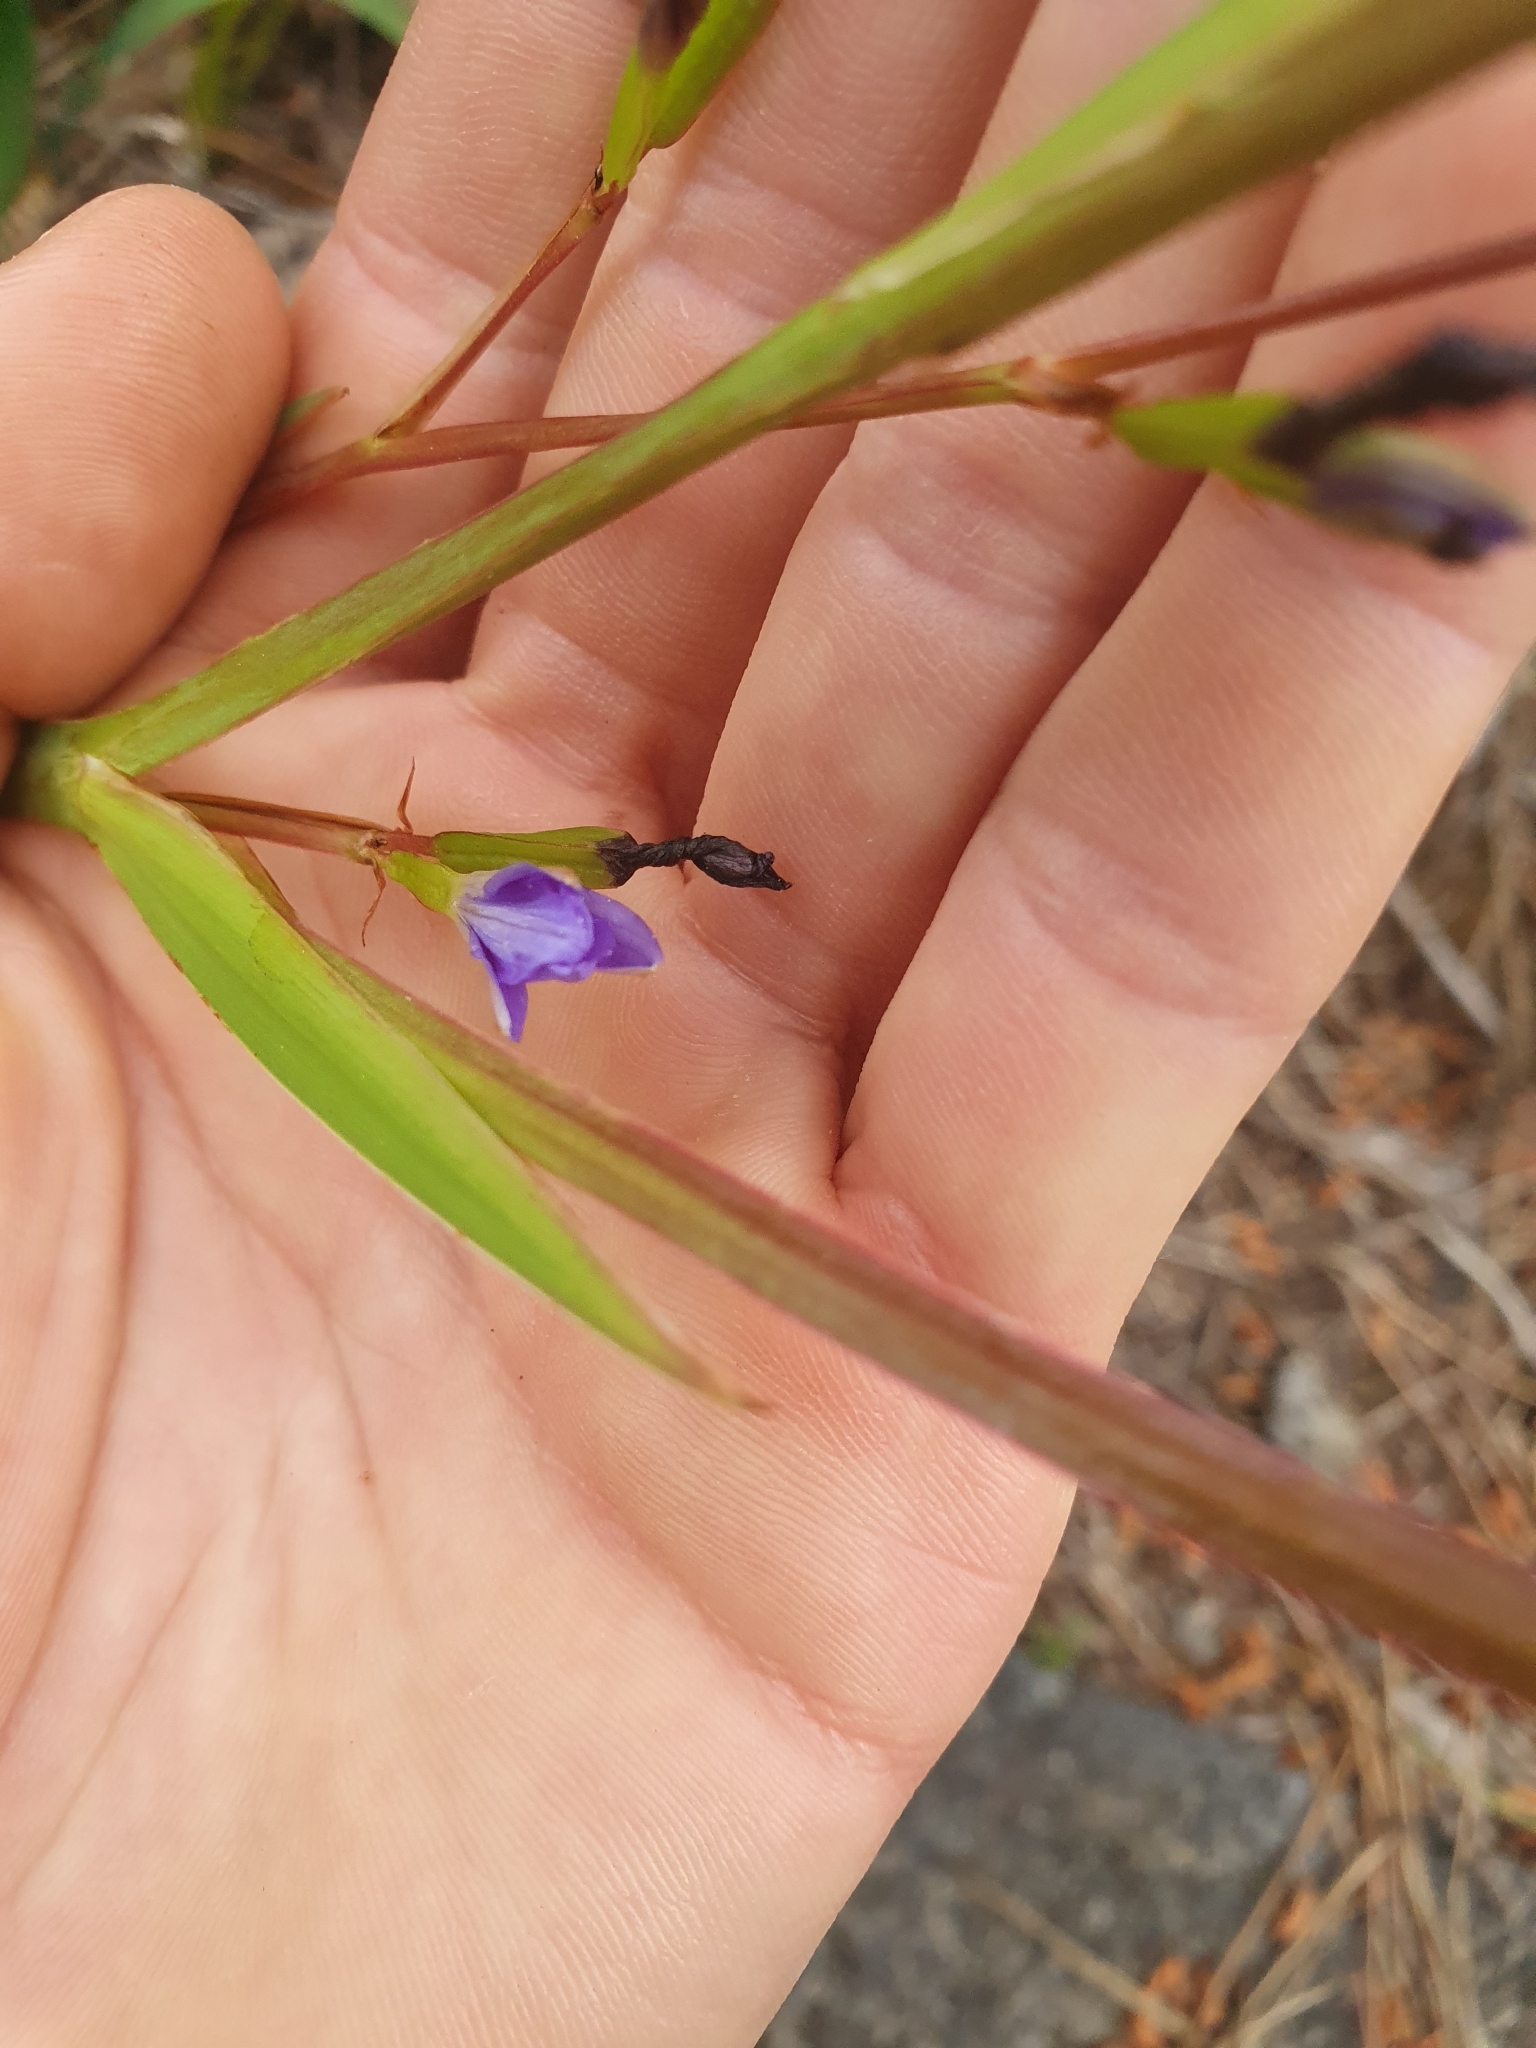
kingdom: Plantae
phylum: Tracheophyta
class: Liliopsida
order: Asparagales
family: Iridaceae
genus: Aristea
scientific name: Aristea ecklonii
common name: Blue corn-lily
